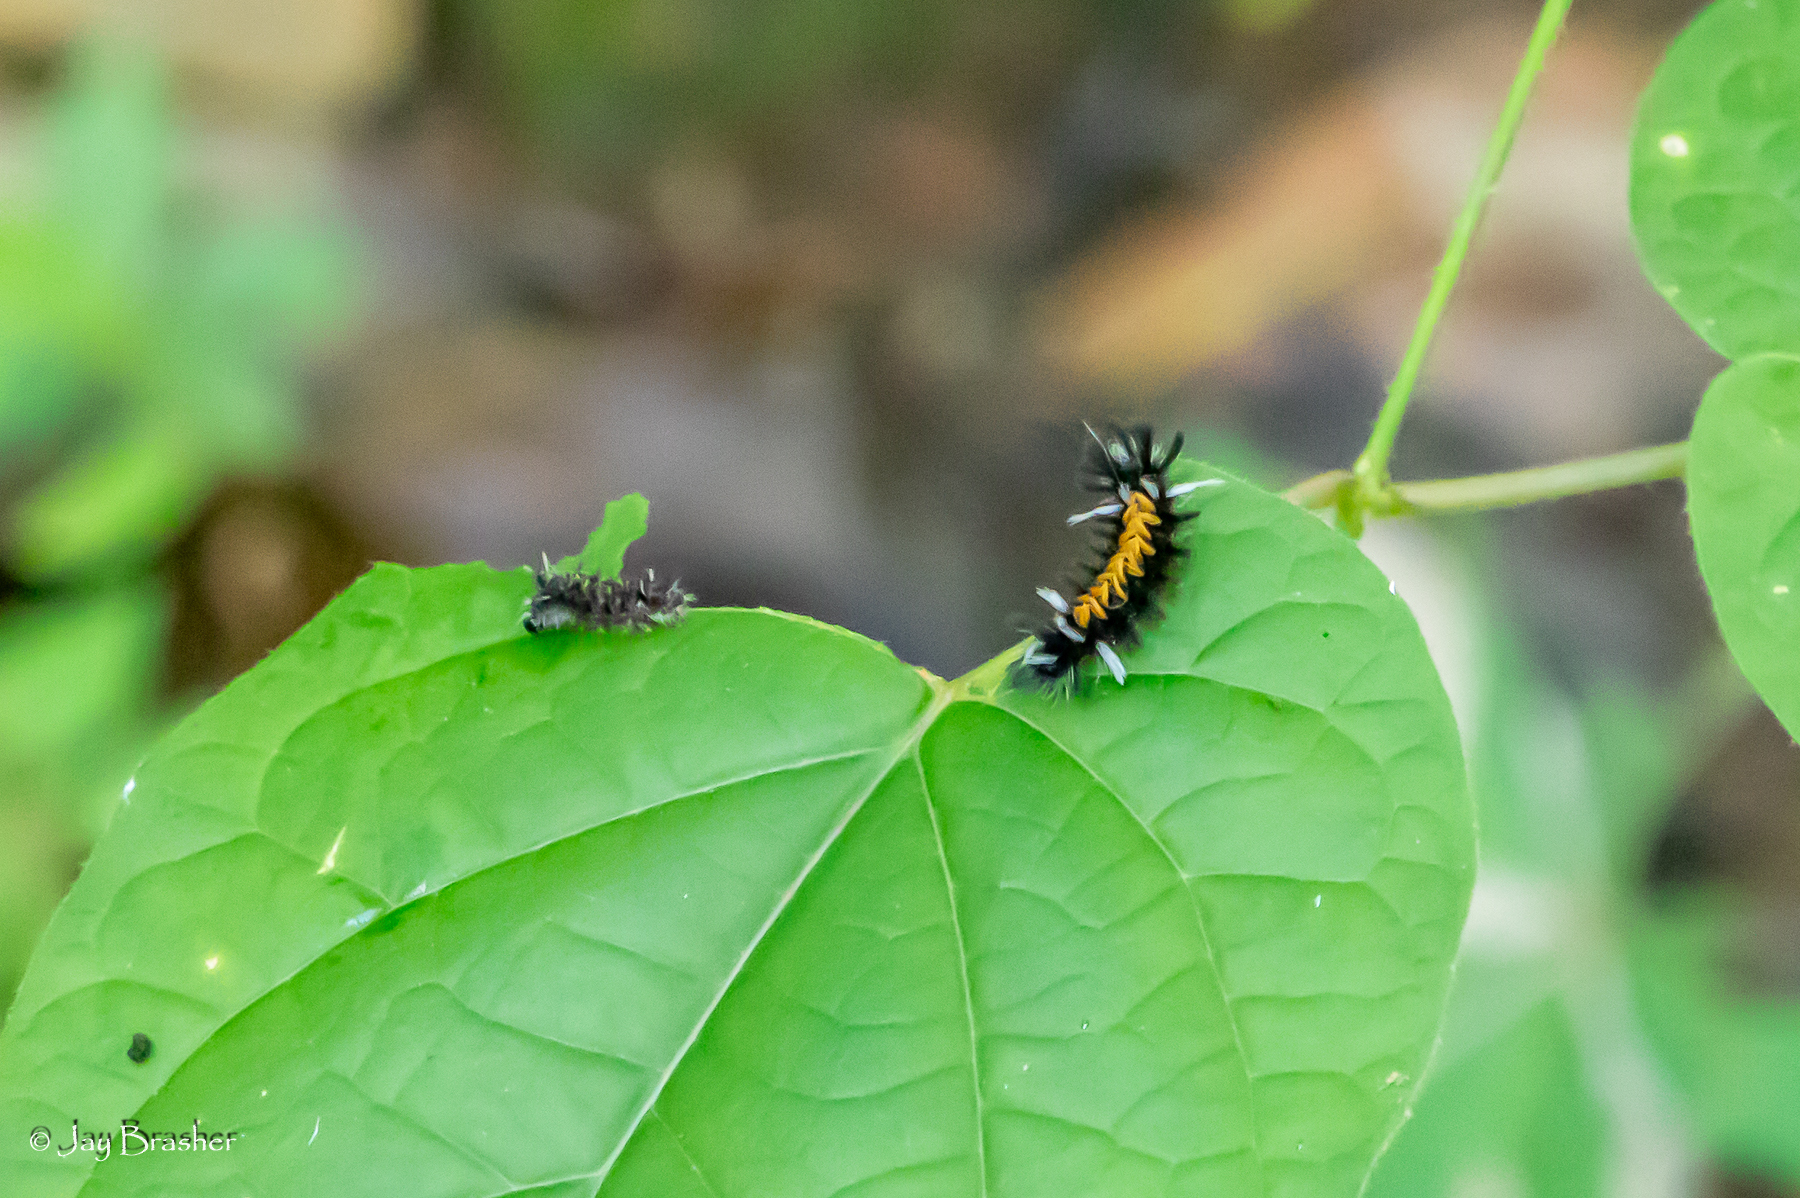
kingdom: Animalia
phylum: Arthropoda
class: Insecta
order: Lepidoptera
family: Erebidae
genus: Euchaetes
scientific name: Euchaetes egle
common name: Milkweed tussock moth
